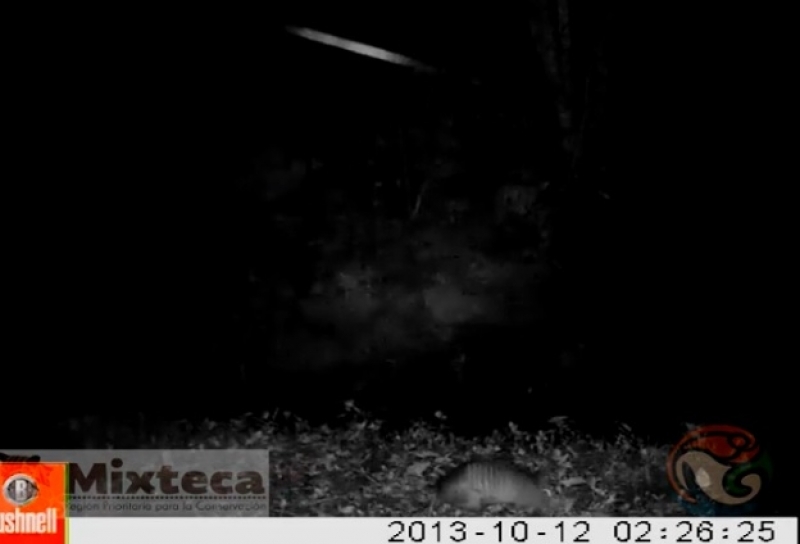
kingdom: Animalia
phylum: Chordata
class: Mammalia
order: Cingulata
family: Dasypodidae
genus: Dasypus
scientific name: Dasypus novemcinctus
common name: Nine-banded armadillo
